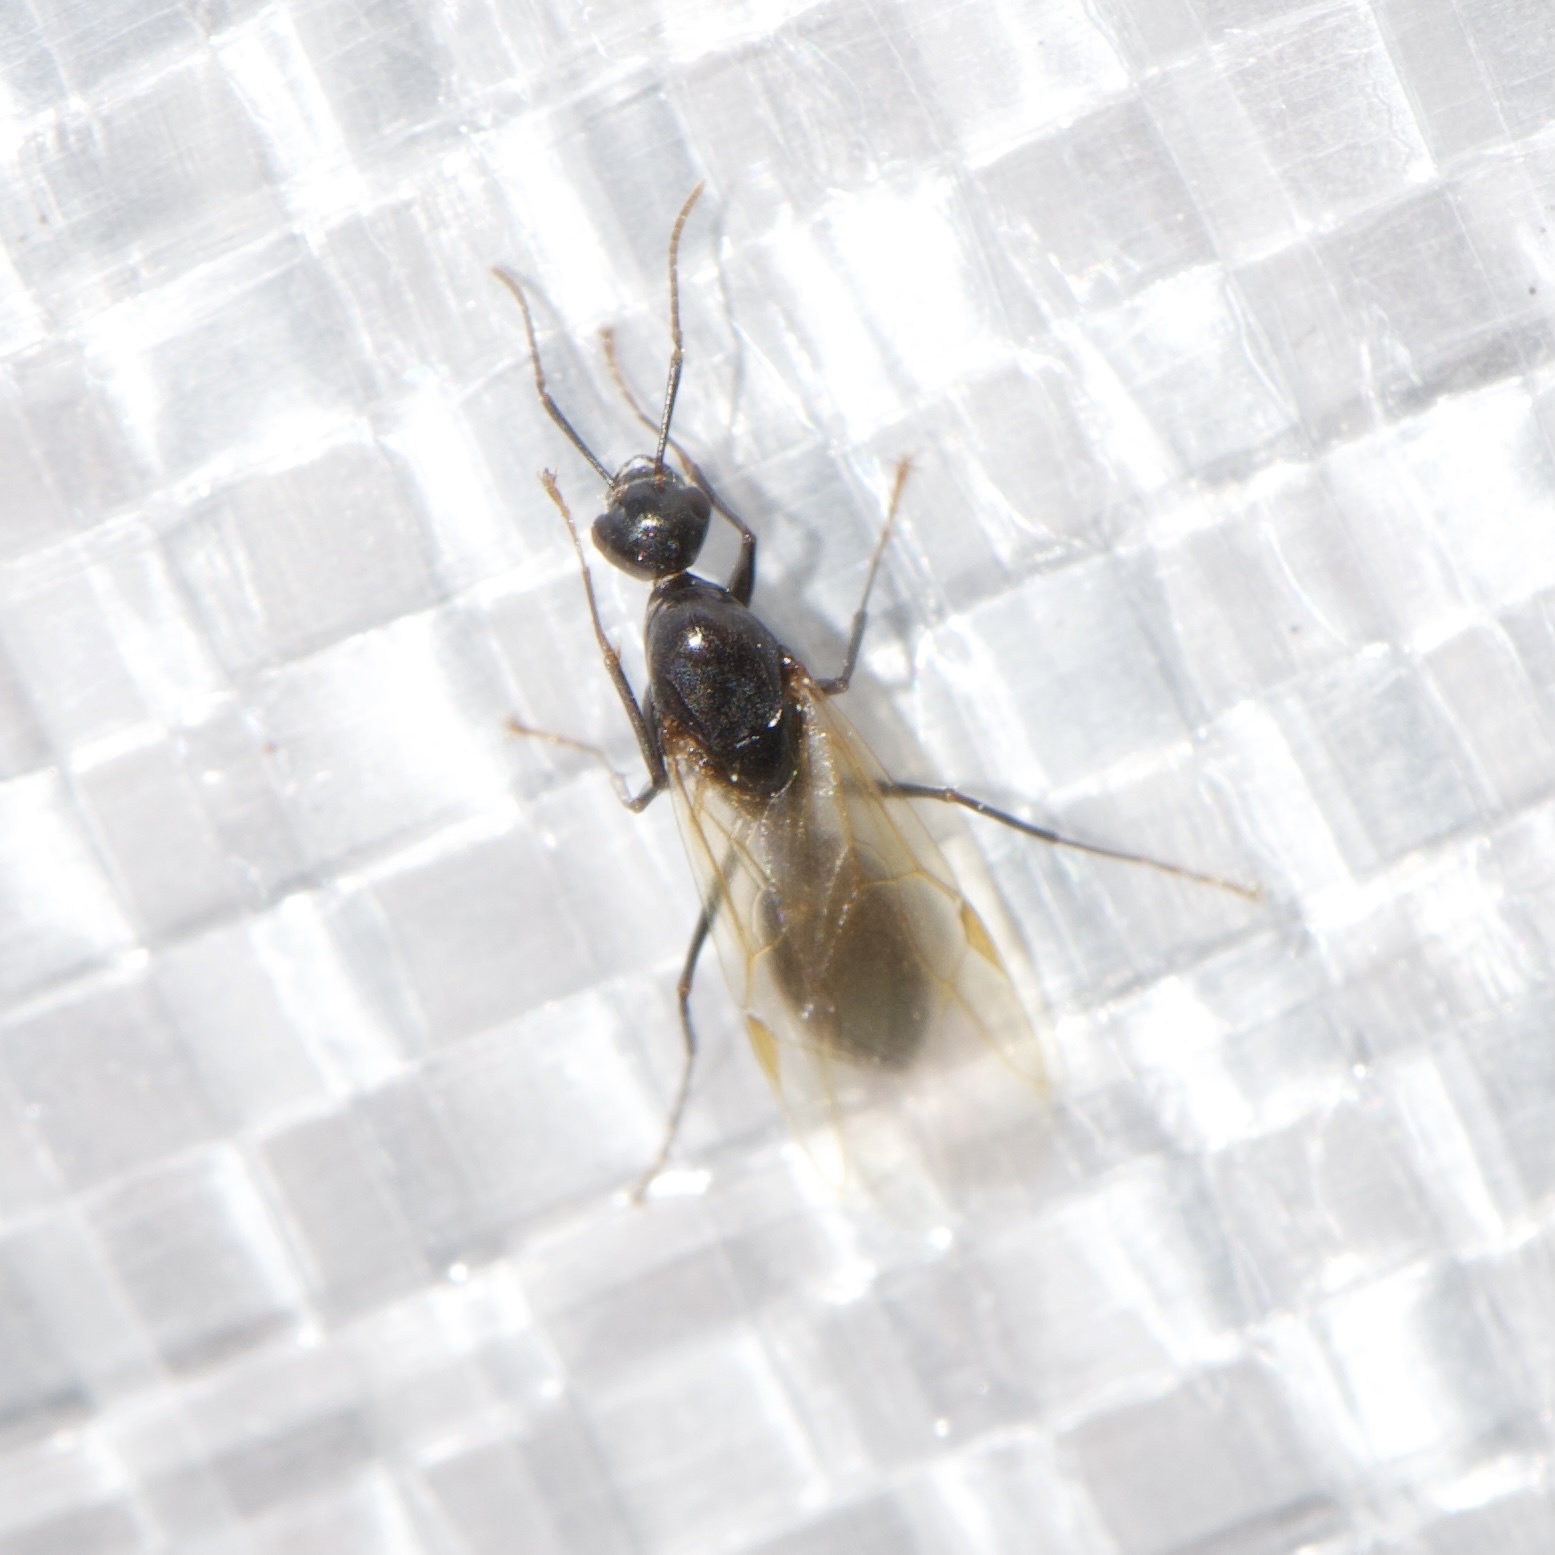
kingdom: Animalia
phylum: Arthropoda
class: Insecta
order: Hymenoptera
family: Formicidae
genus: Camponotus
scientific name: Camponotus pennsylvanicus
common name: Black carpenter ant
